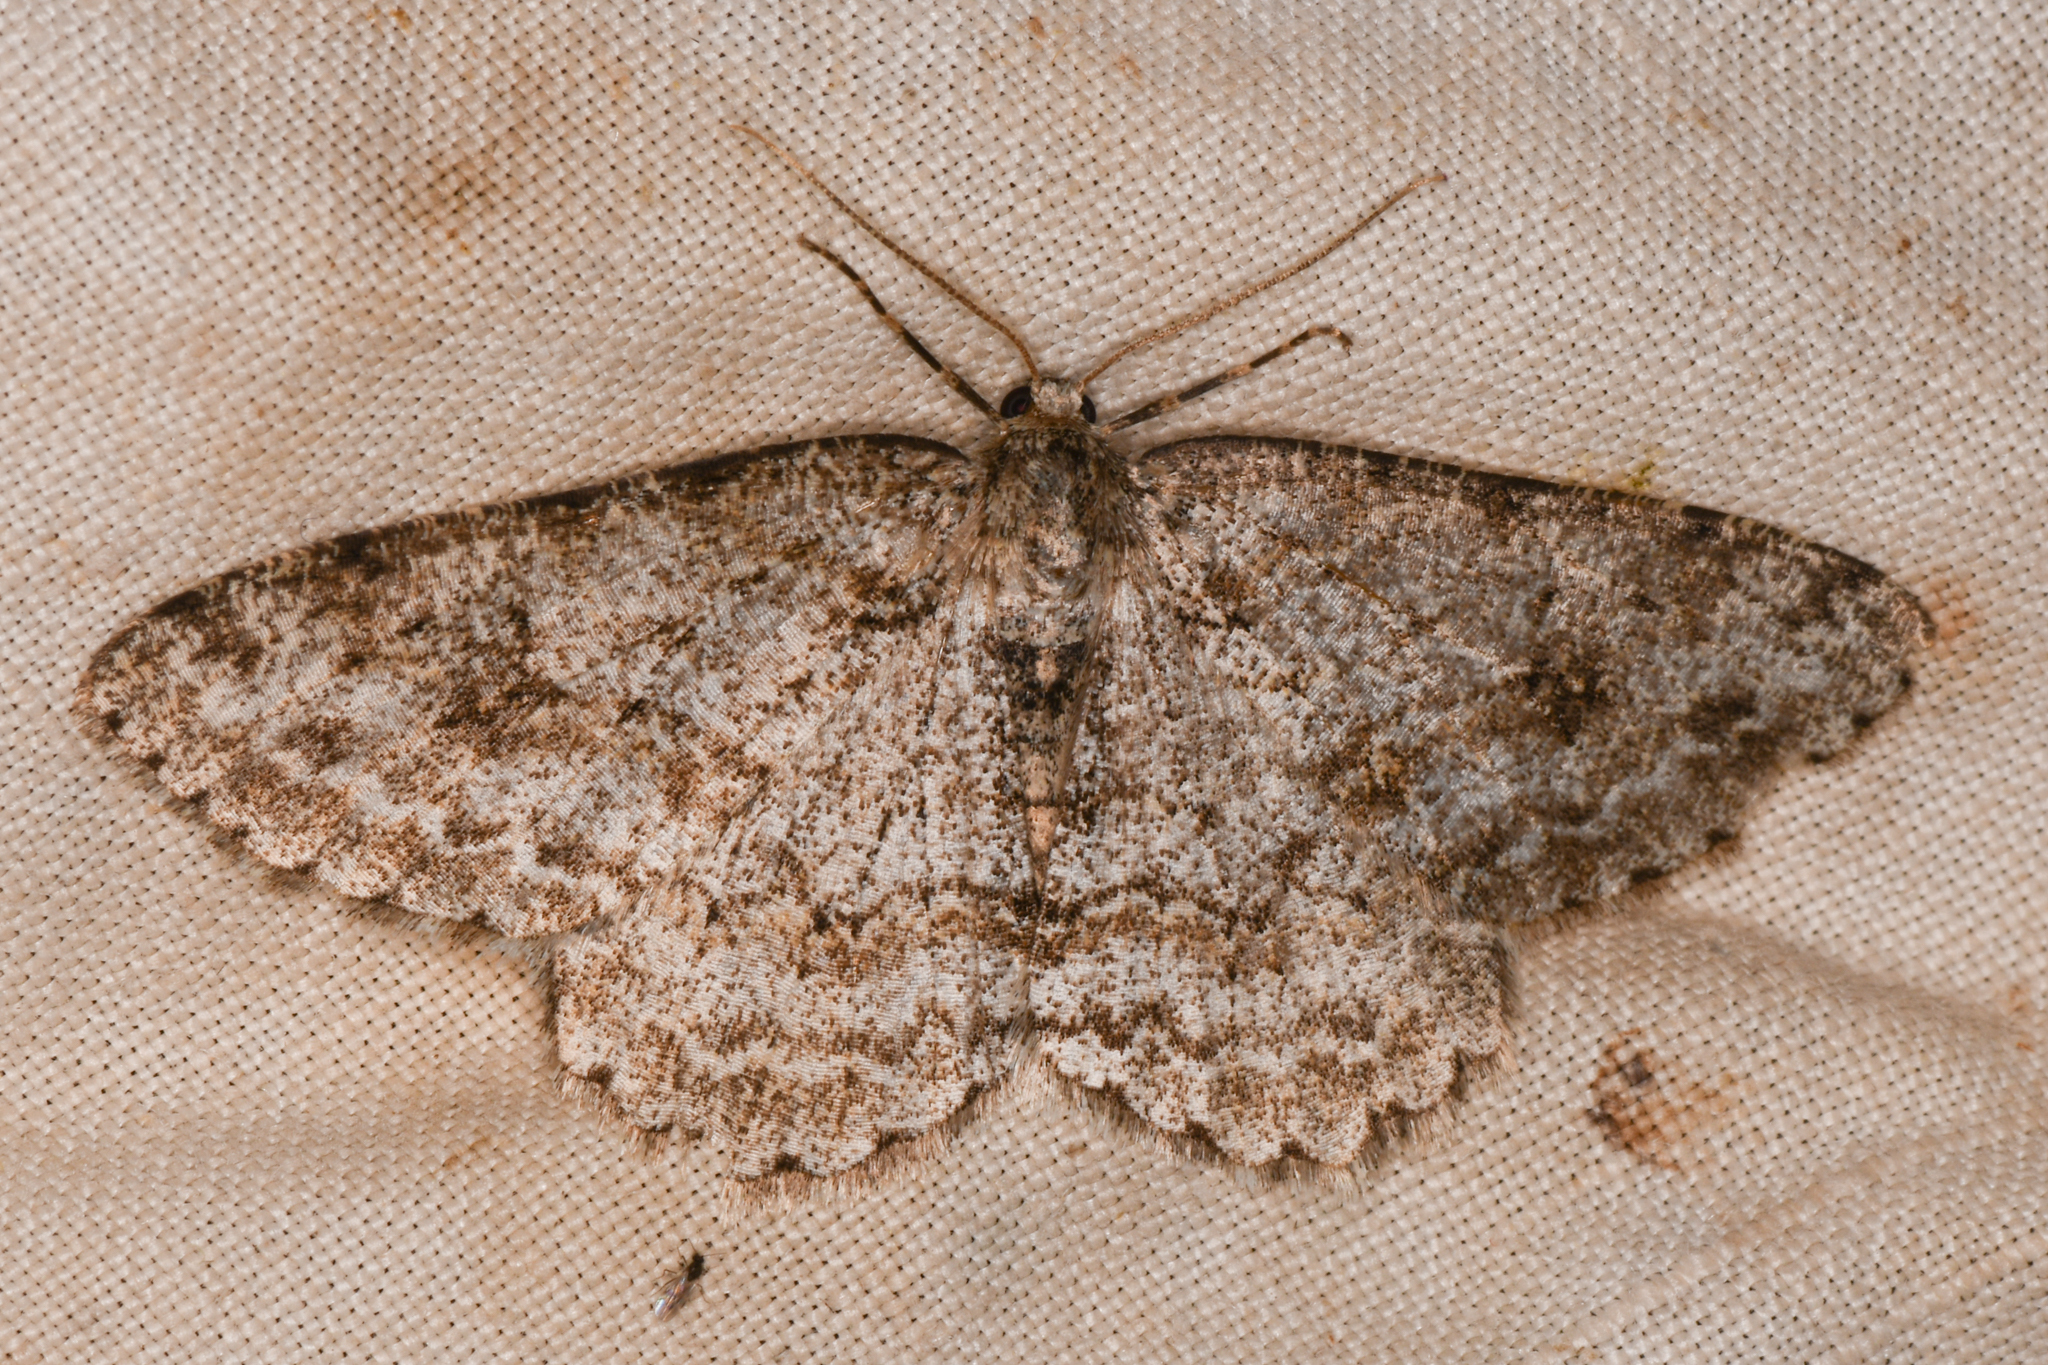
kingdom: Animalia
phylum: Arthropoda
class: Insecta
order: Lepidoptera
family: Geometridae
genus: Ectropis
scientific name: Ectropis crepuscularia
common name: Engrailed
